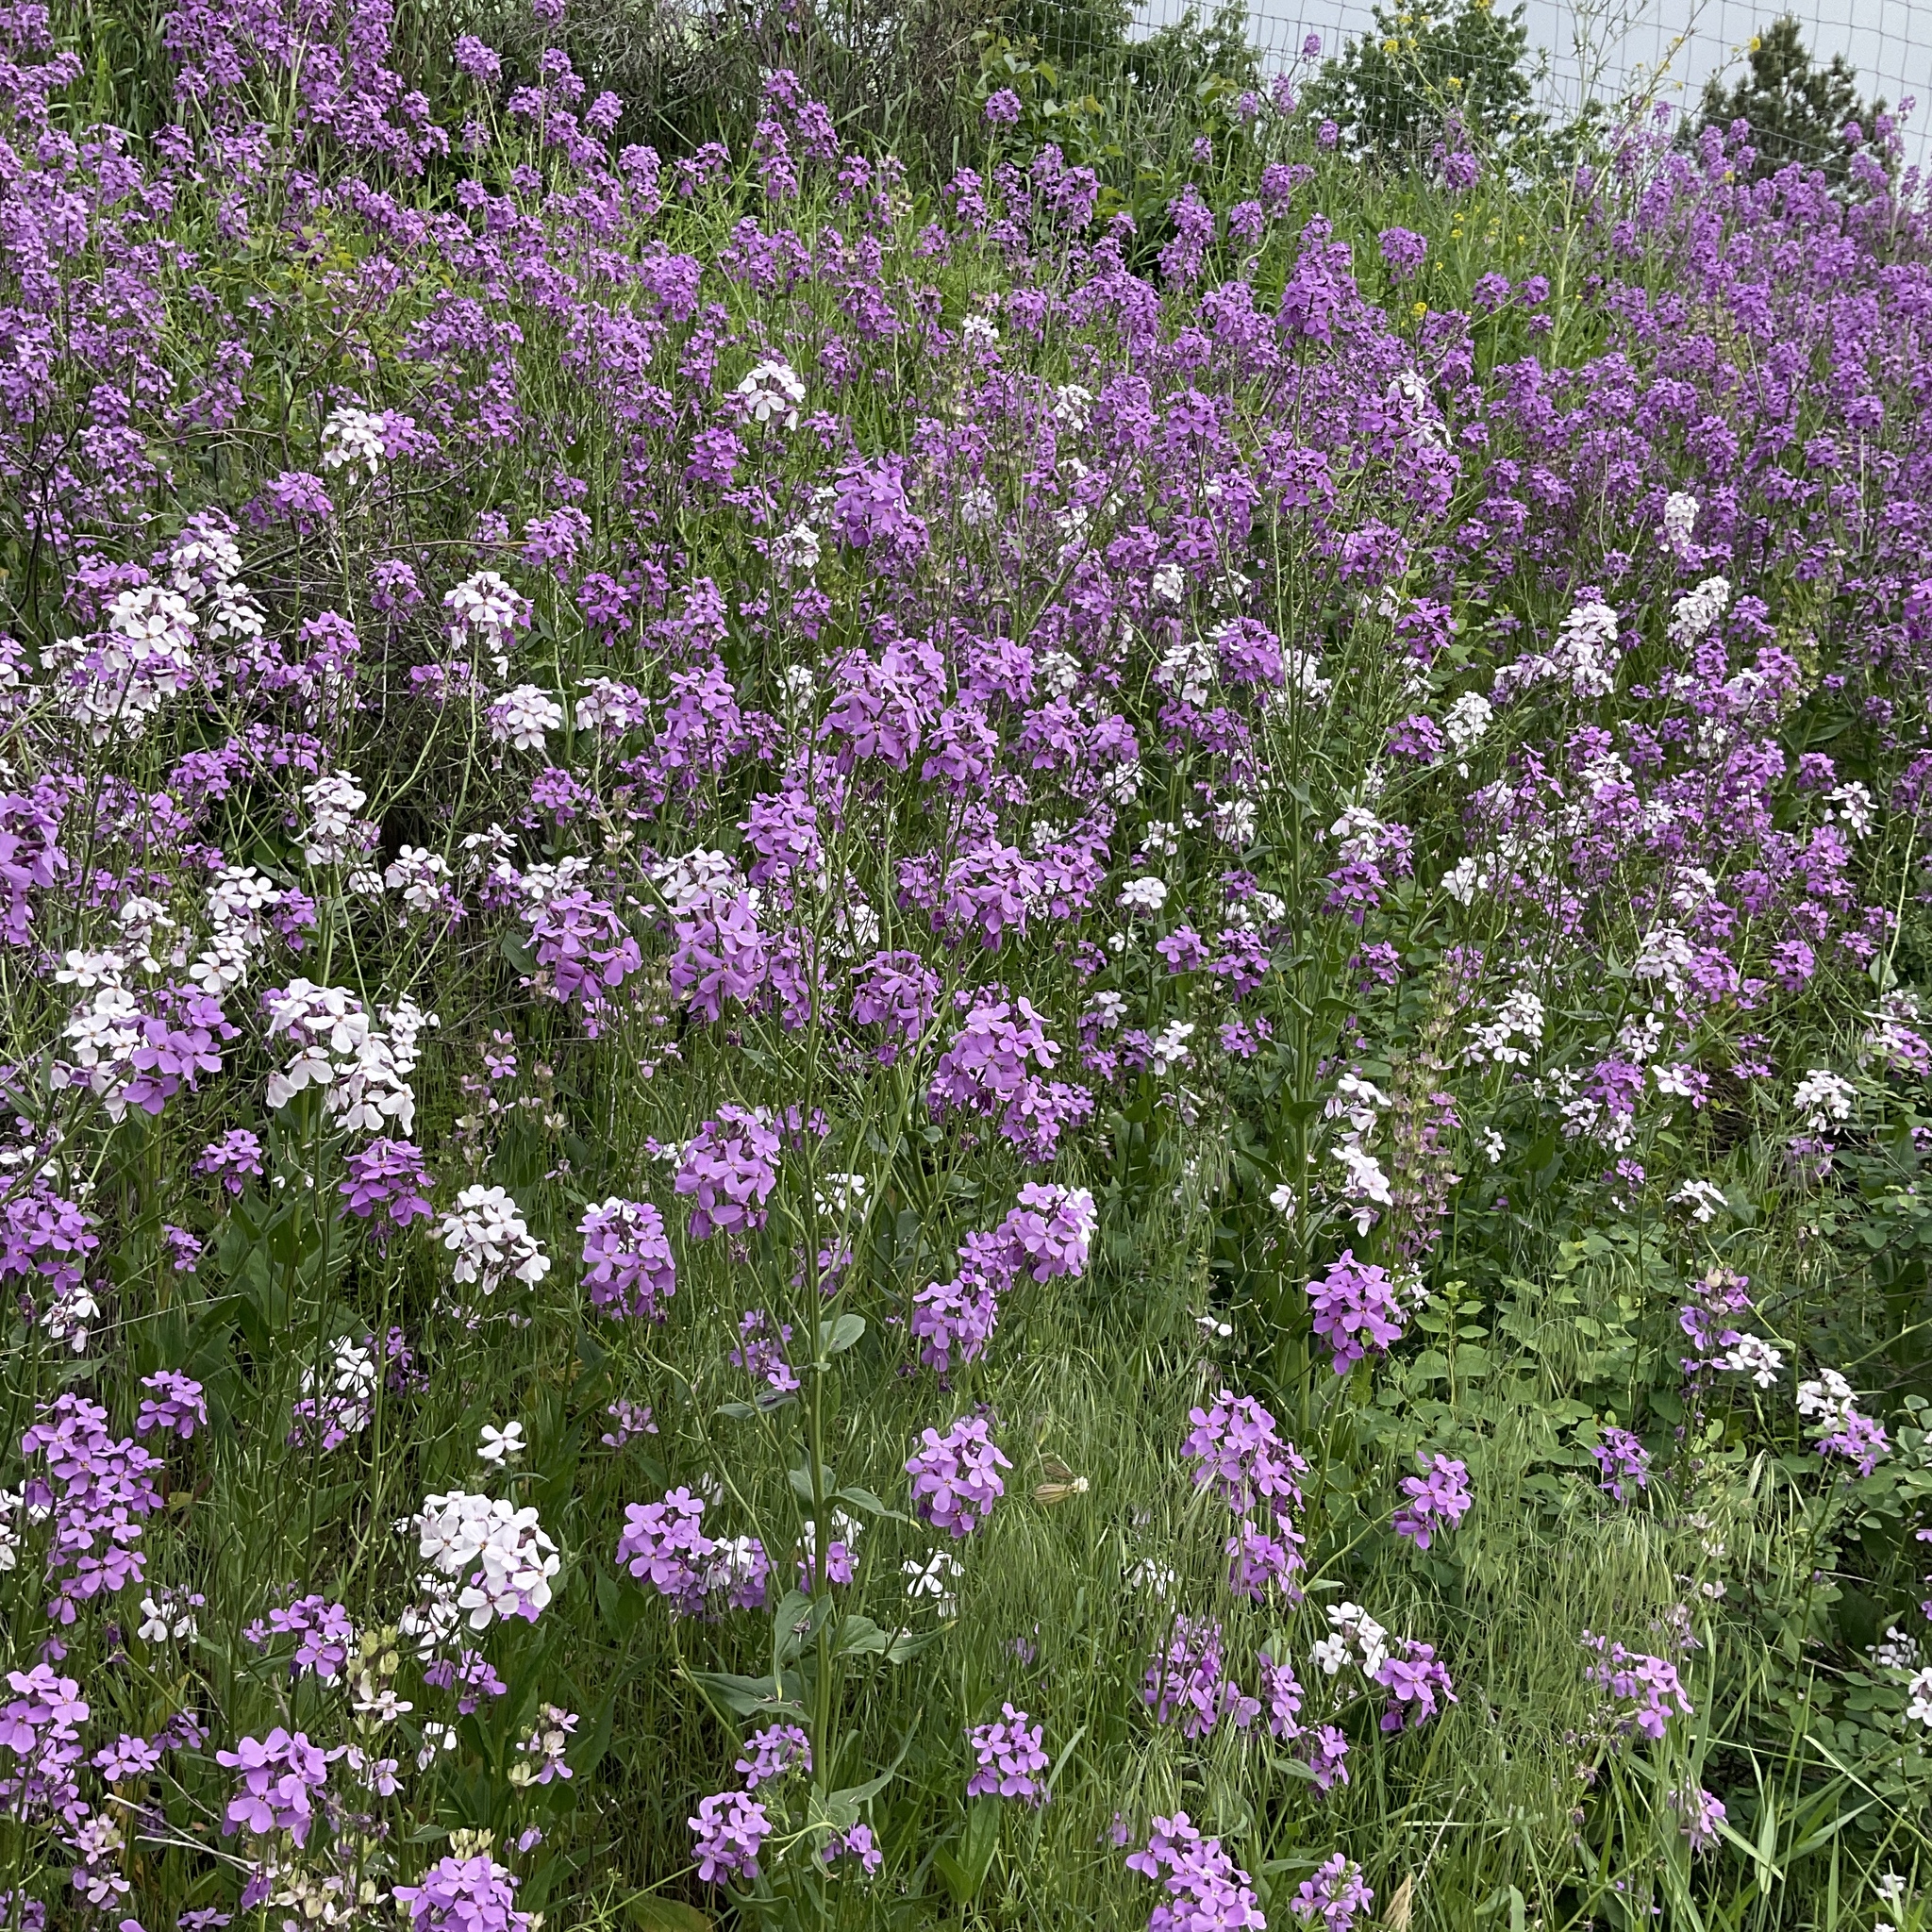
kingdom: Plantae
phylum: Tracheophyta
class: Magnoliopsida
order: Brassicales
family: Brassicaceae
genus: Hesperis
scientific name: Hesperis matronalis
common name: Dame's-violet
